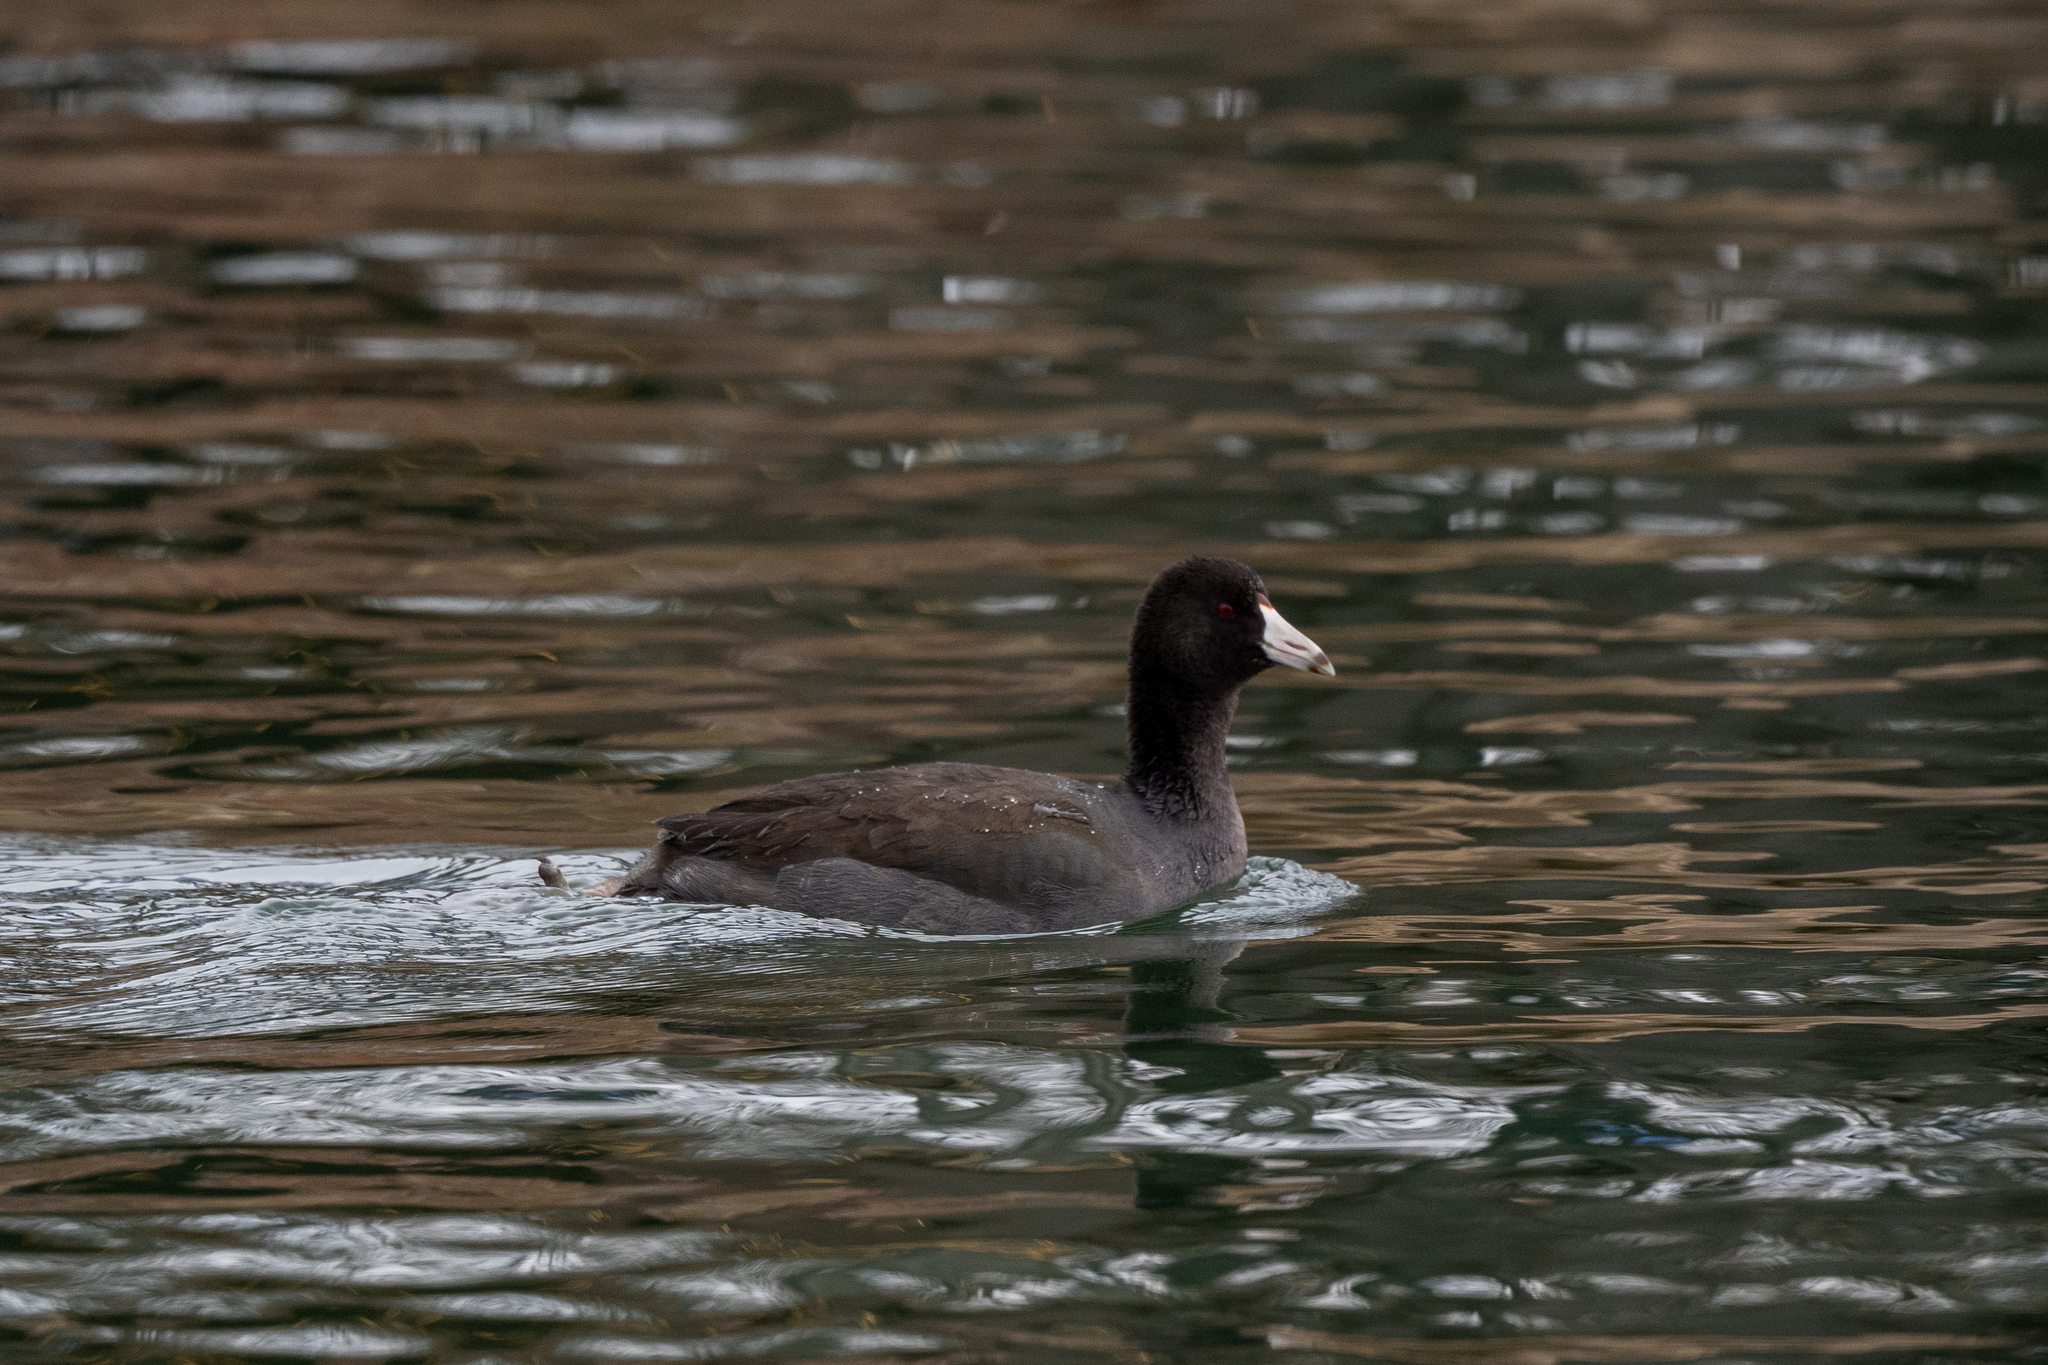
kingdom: Animalia
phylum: Chordata
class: Aves
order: Gruiformes
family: Rallidae
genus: Fulica
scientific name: Fulica americana
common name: American coot
